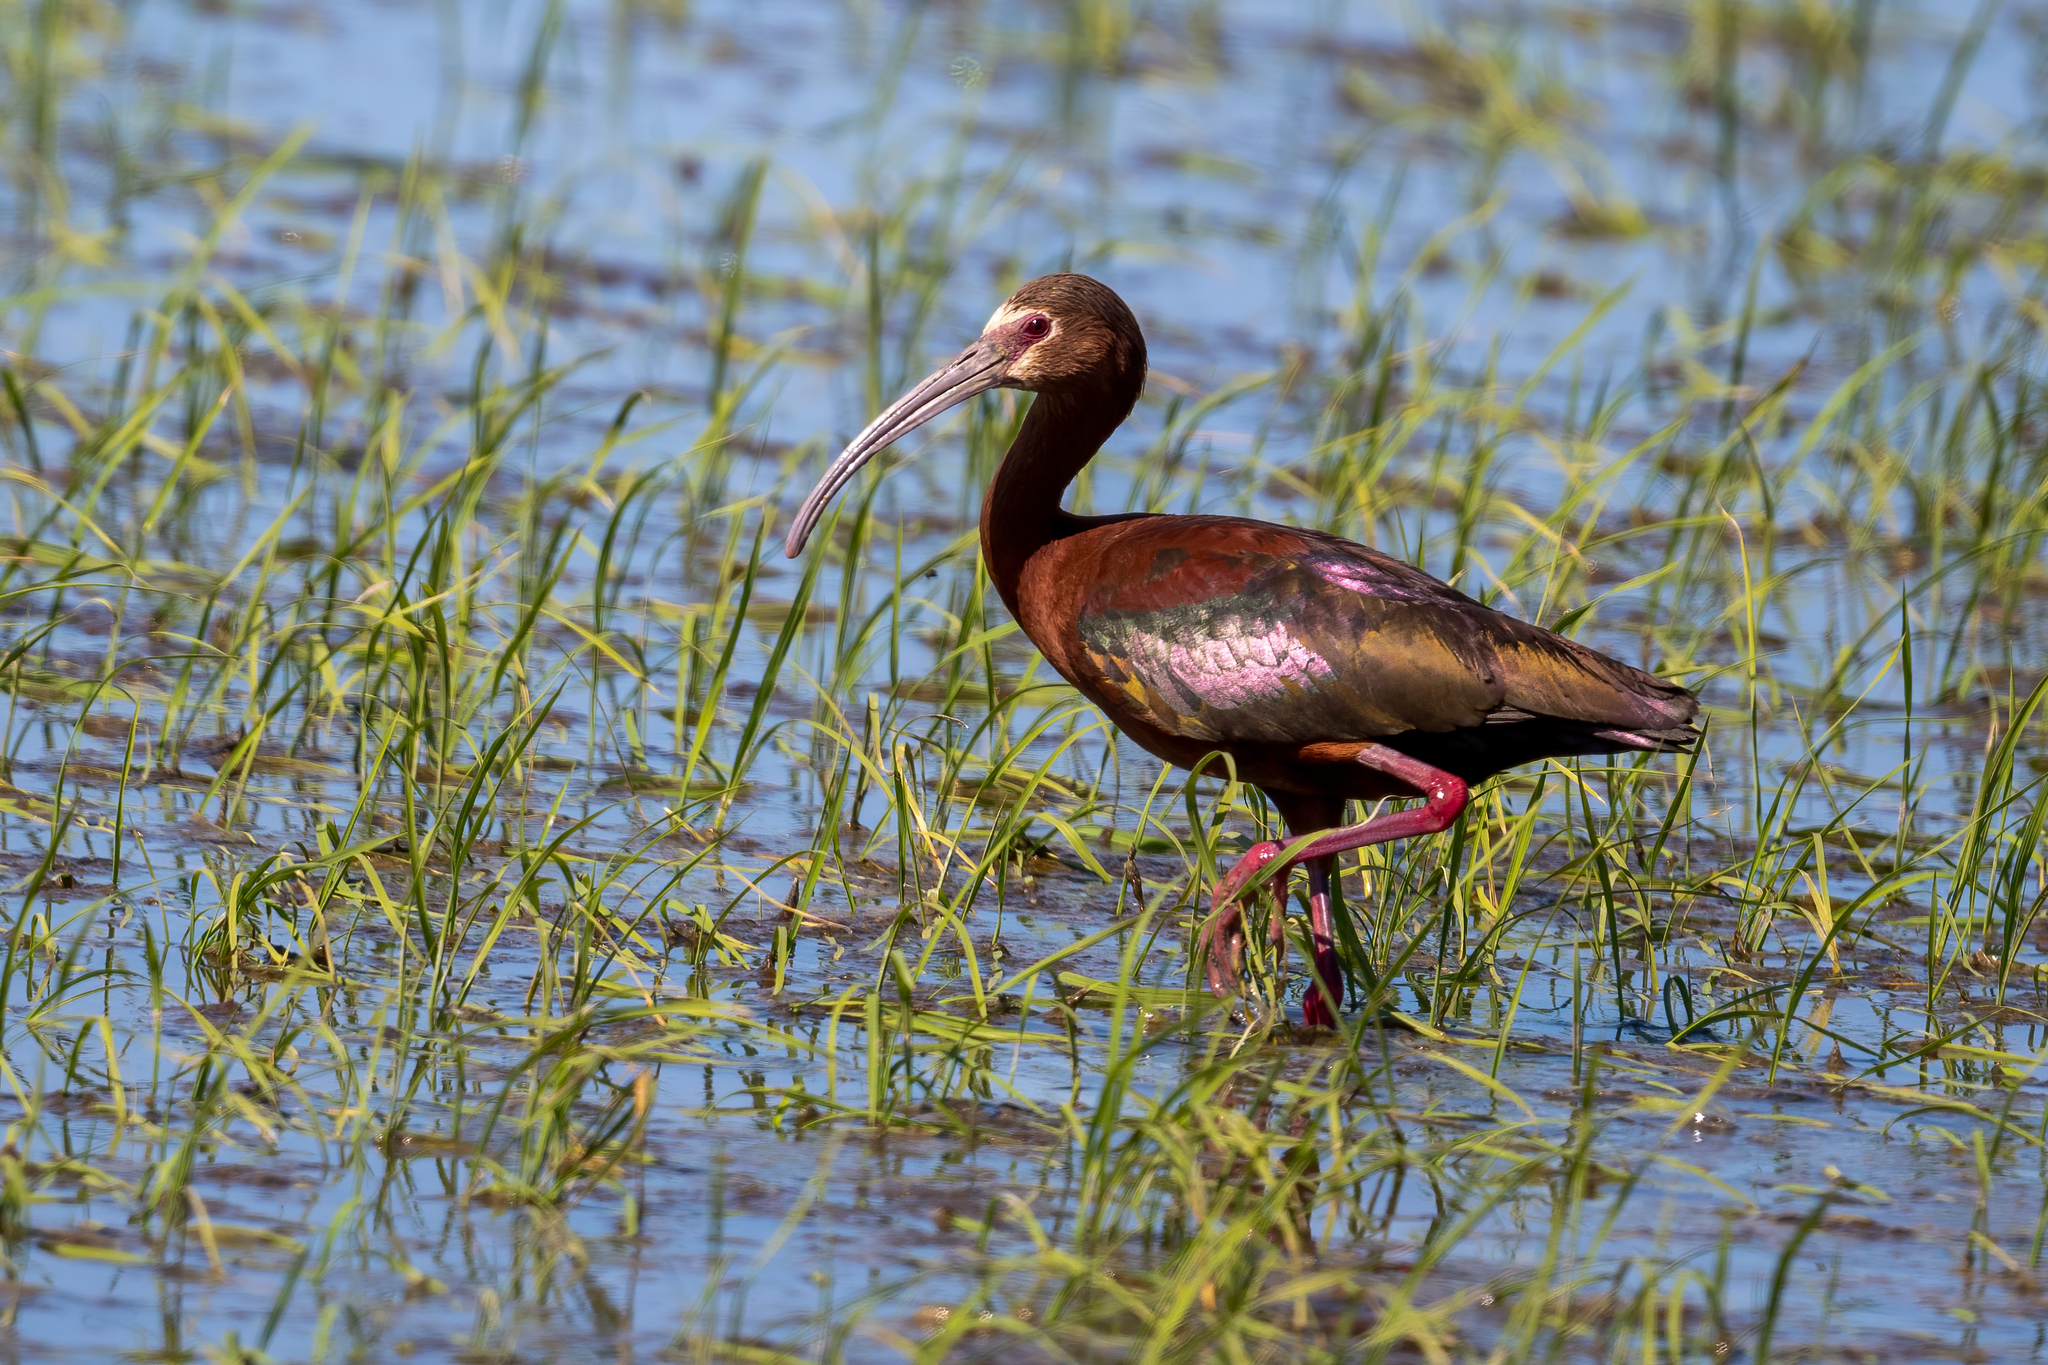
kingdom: Animalia
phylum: Chordata
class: Aves
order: Pelecaniformes
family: Threskiornithidae
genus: Plegadis
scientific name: Plegadis chihi
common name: White-faced ibis
